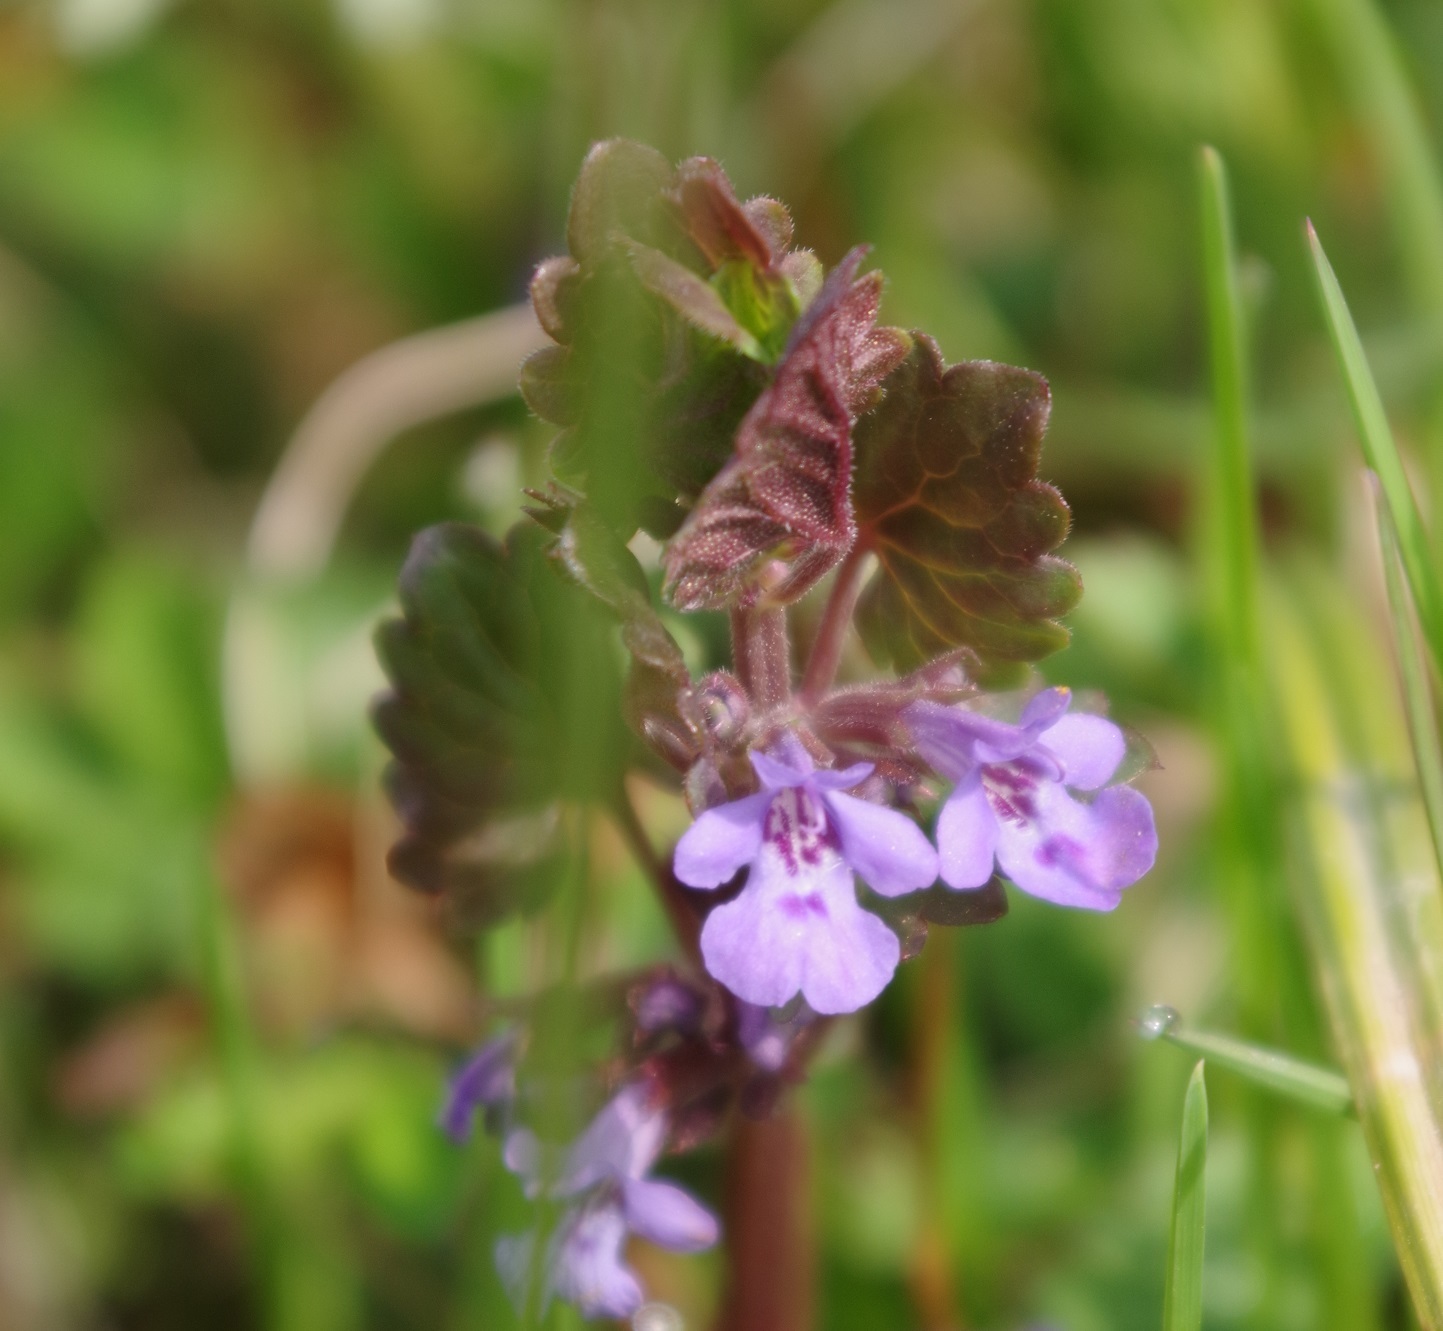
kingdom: Plantae
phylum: Tracheophyta
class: Magnoliopsida
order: Lamiales
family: Lamiaceae
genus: Glechoma
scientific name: Glechoma hederacea
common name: Ground ivy
